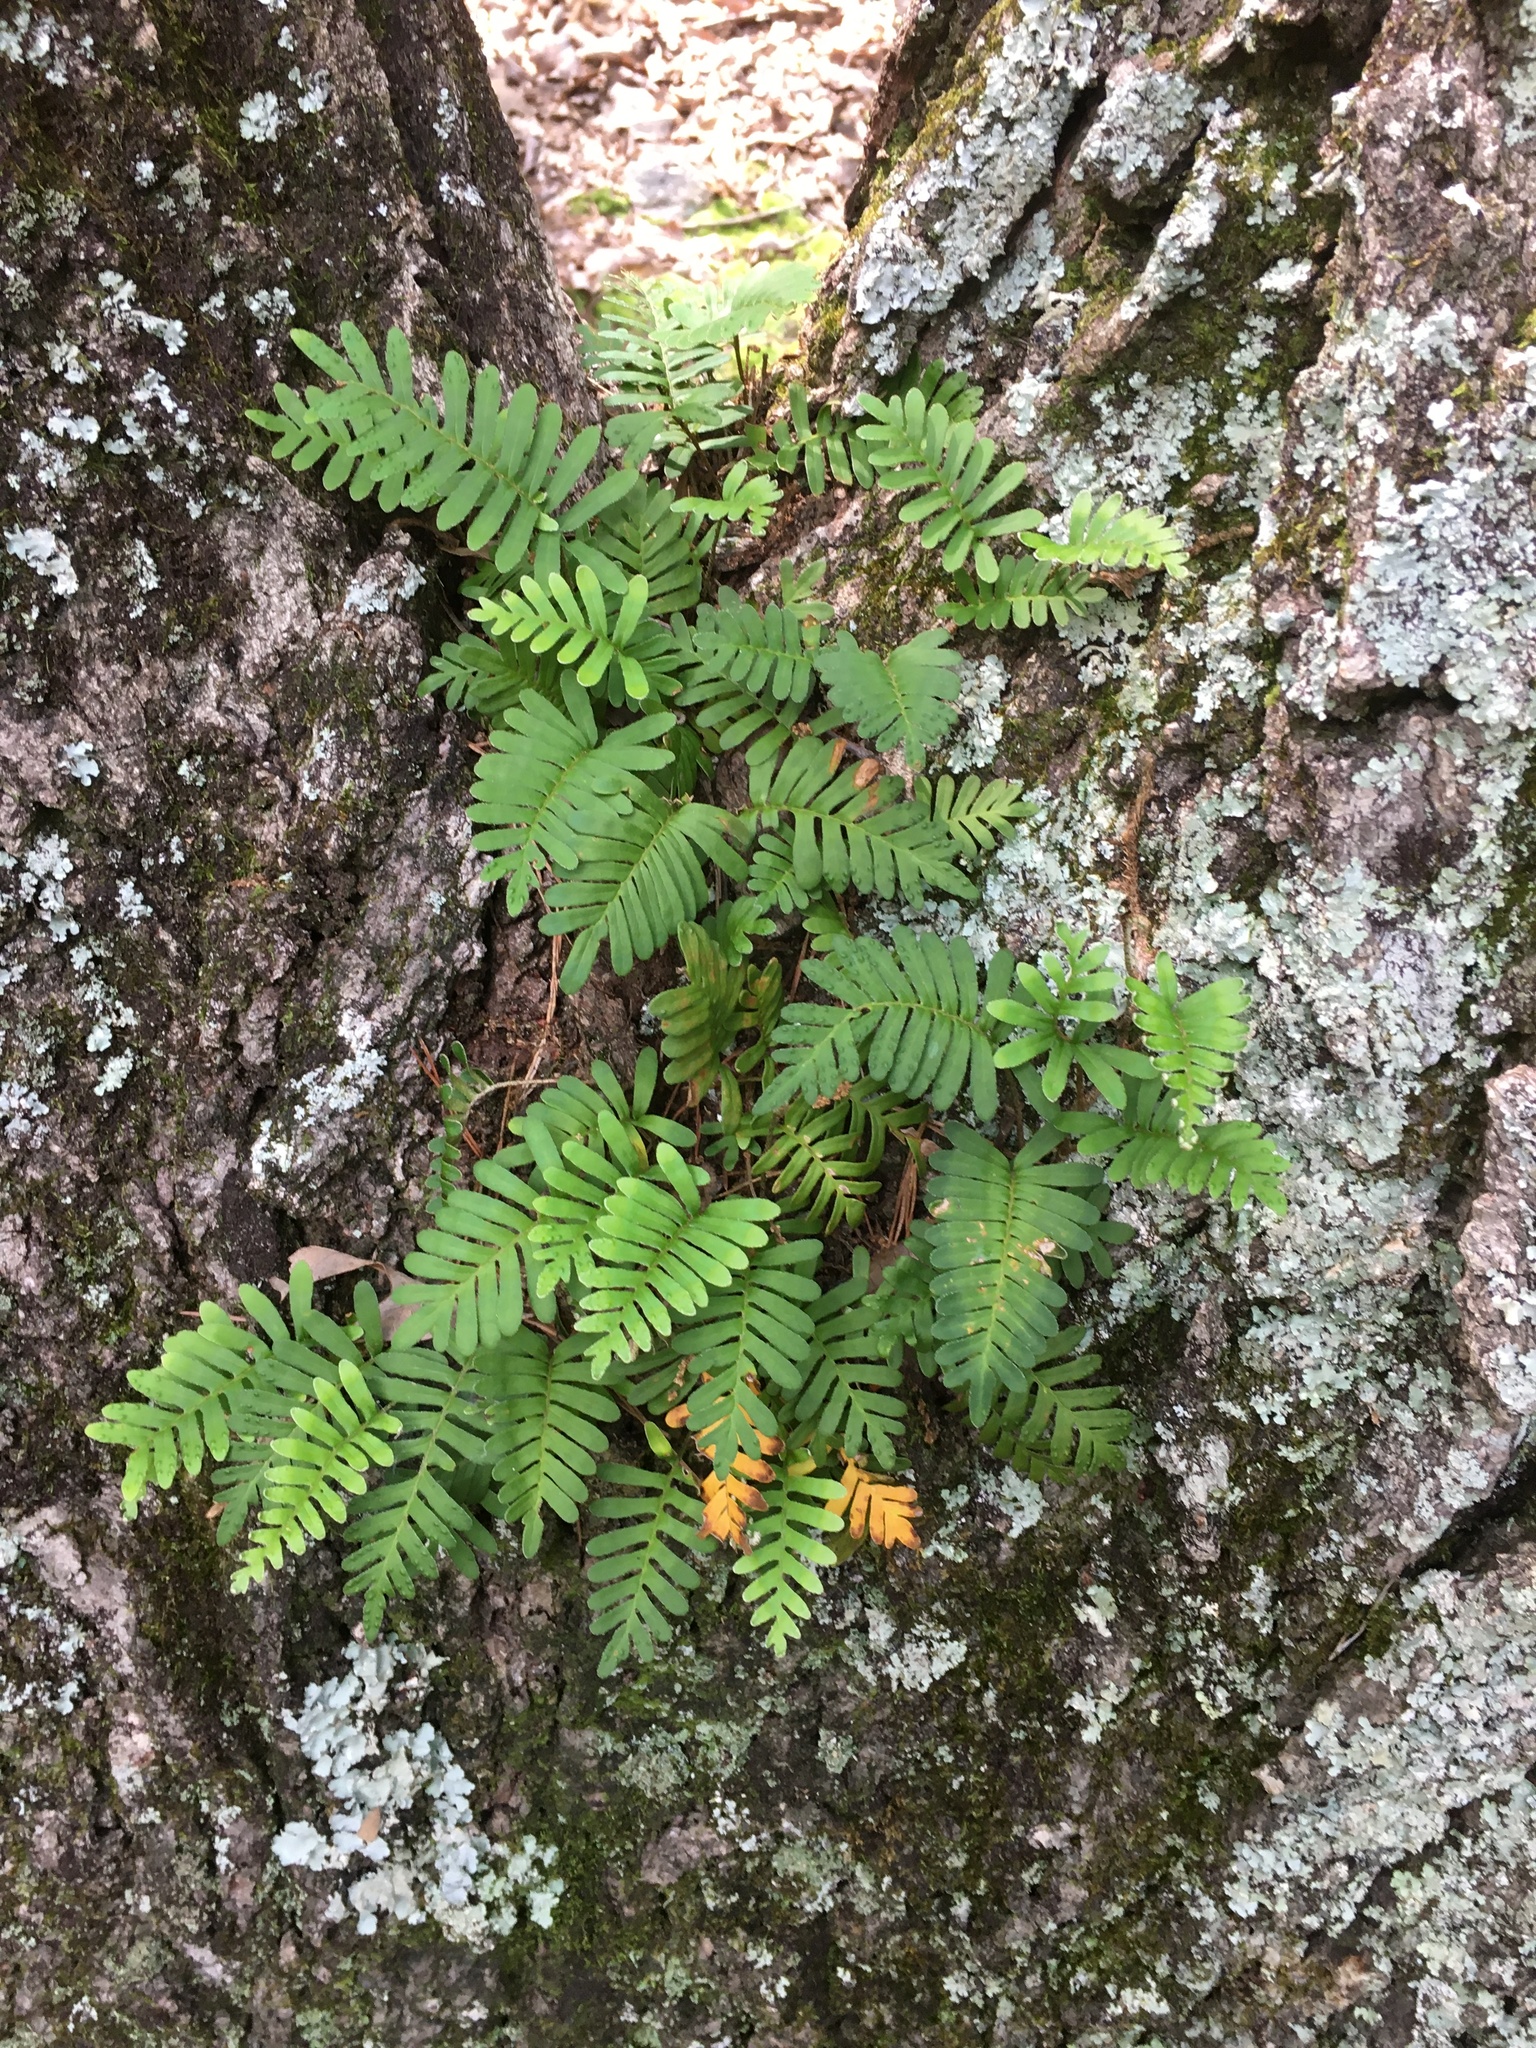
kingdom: Plantae
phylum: Tracheophyta
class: Polypodiopsida
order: Polypodiales
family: Polypodiaceae
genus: Pleopeltis
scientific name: Pleopeltis michauxiana
